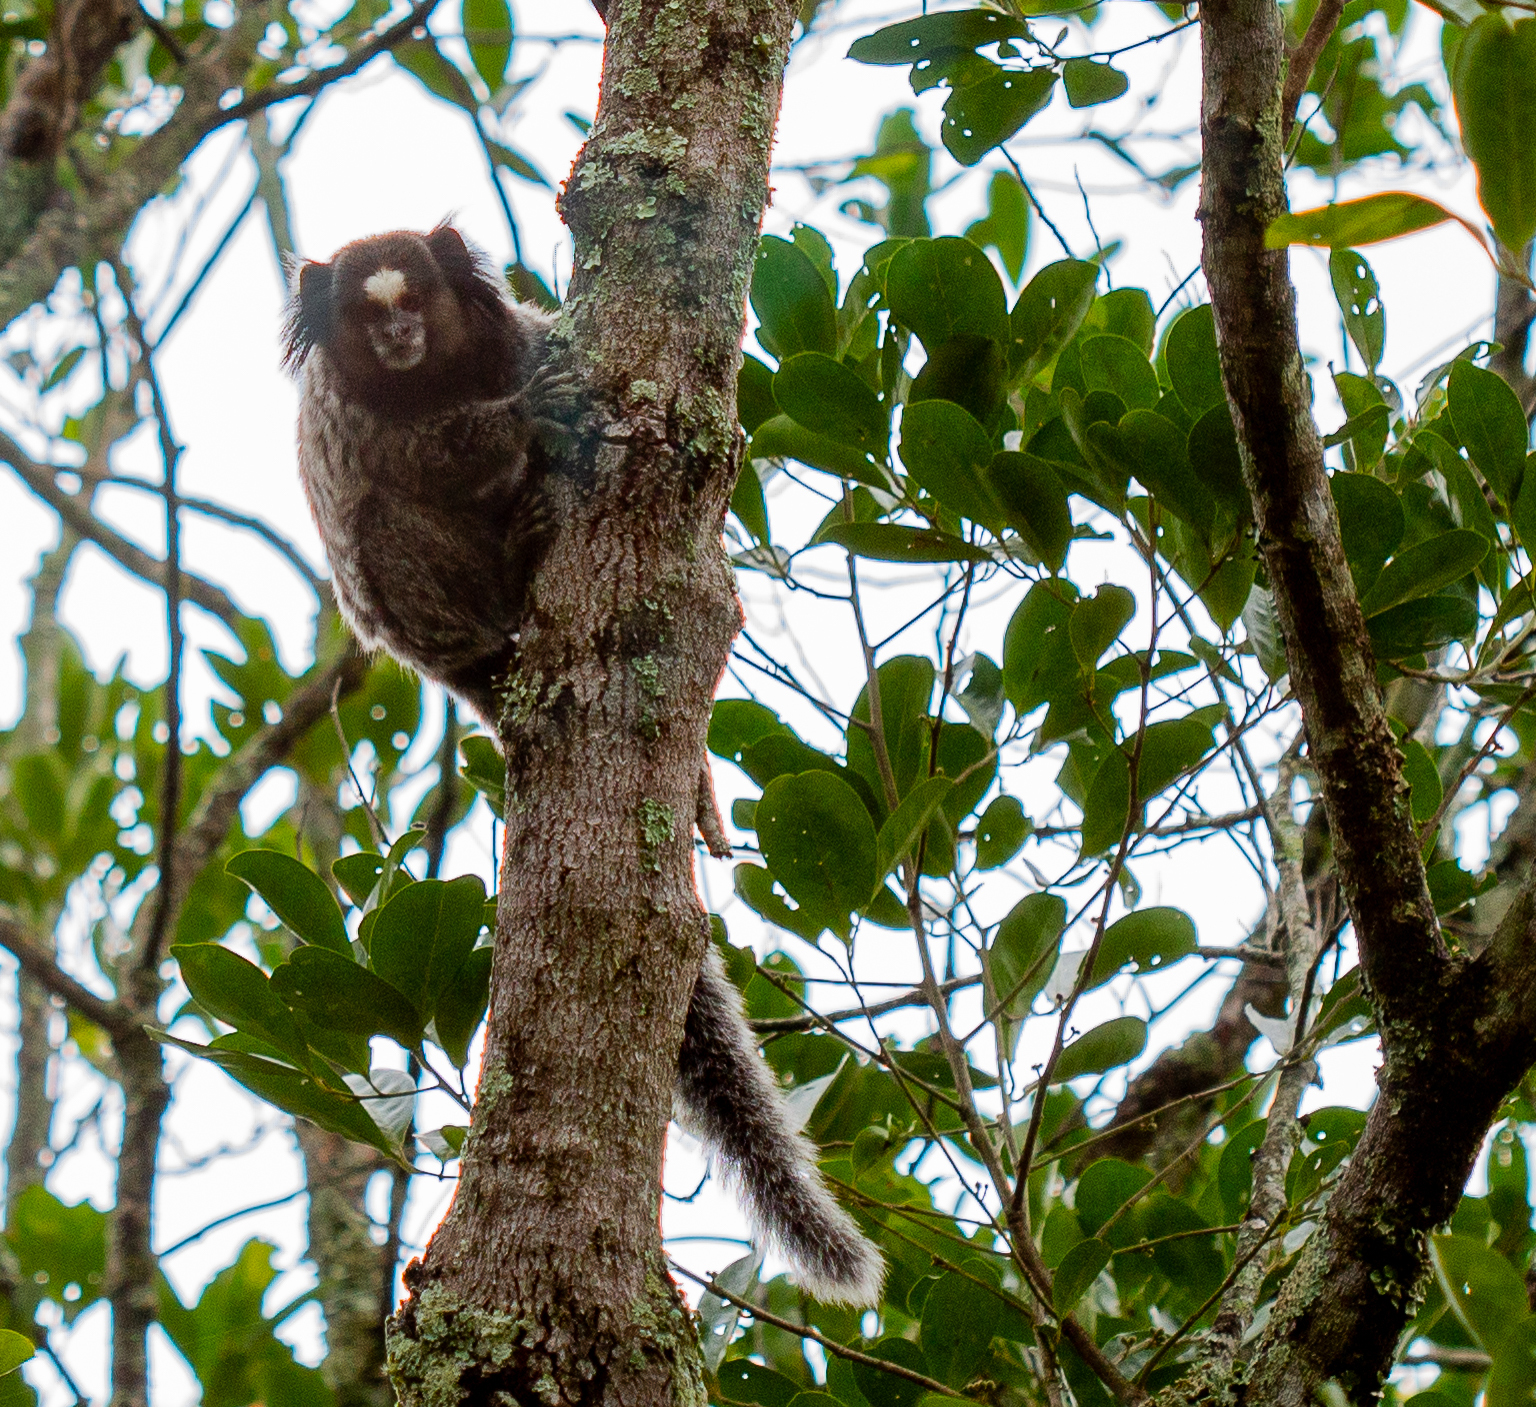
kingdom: Animalia
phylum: Chordata
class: Mammalia
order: Primates
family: Callitrichidae
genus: Callithrix
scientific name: Callithrix penicillata
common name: Black-tufted marmoset
